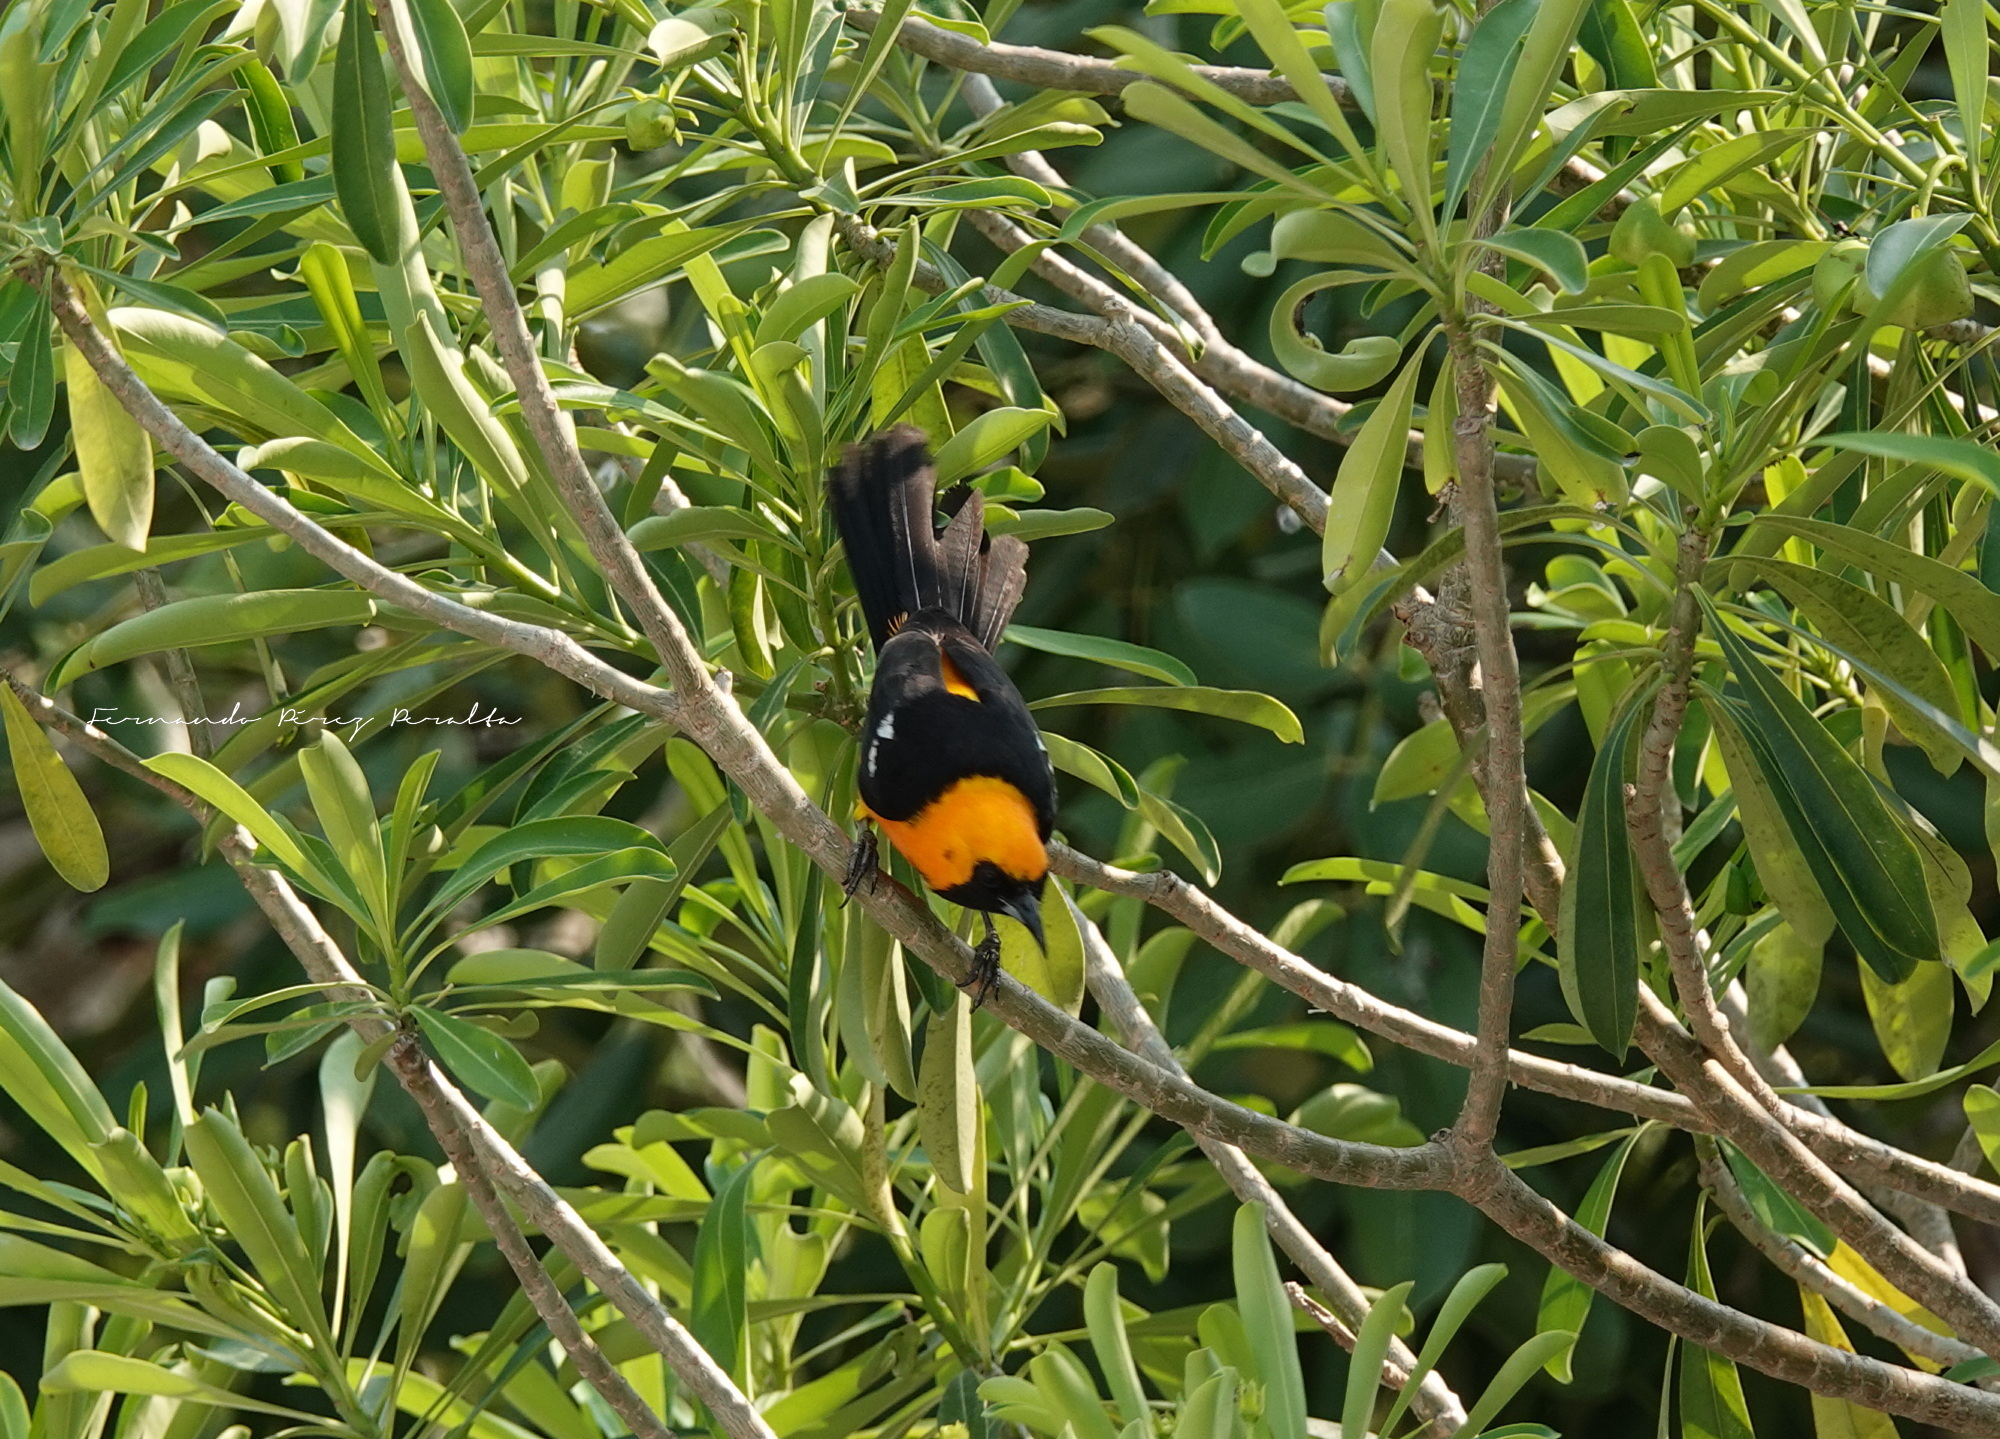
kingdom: Animalia
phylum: Chordata
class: Aves
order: Passeriformes
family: Icteridae
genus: Icterus
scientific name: Icterus cucullatus
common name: Hooded oriole
